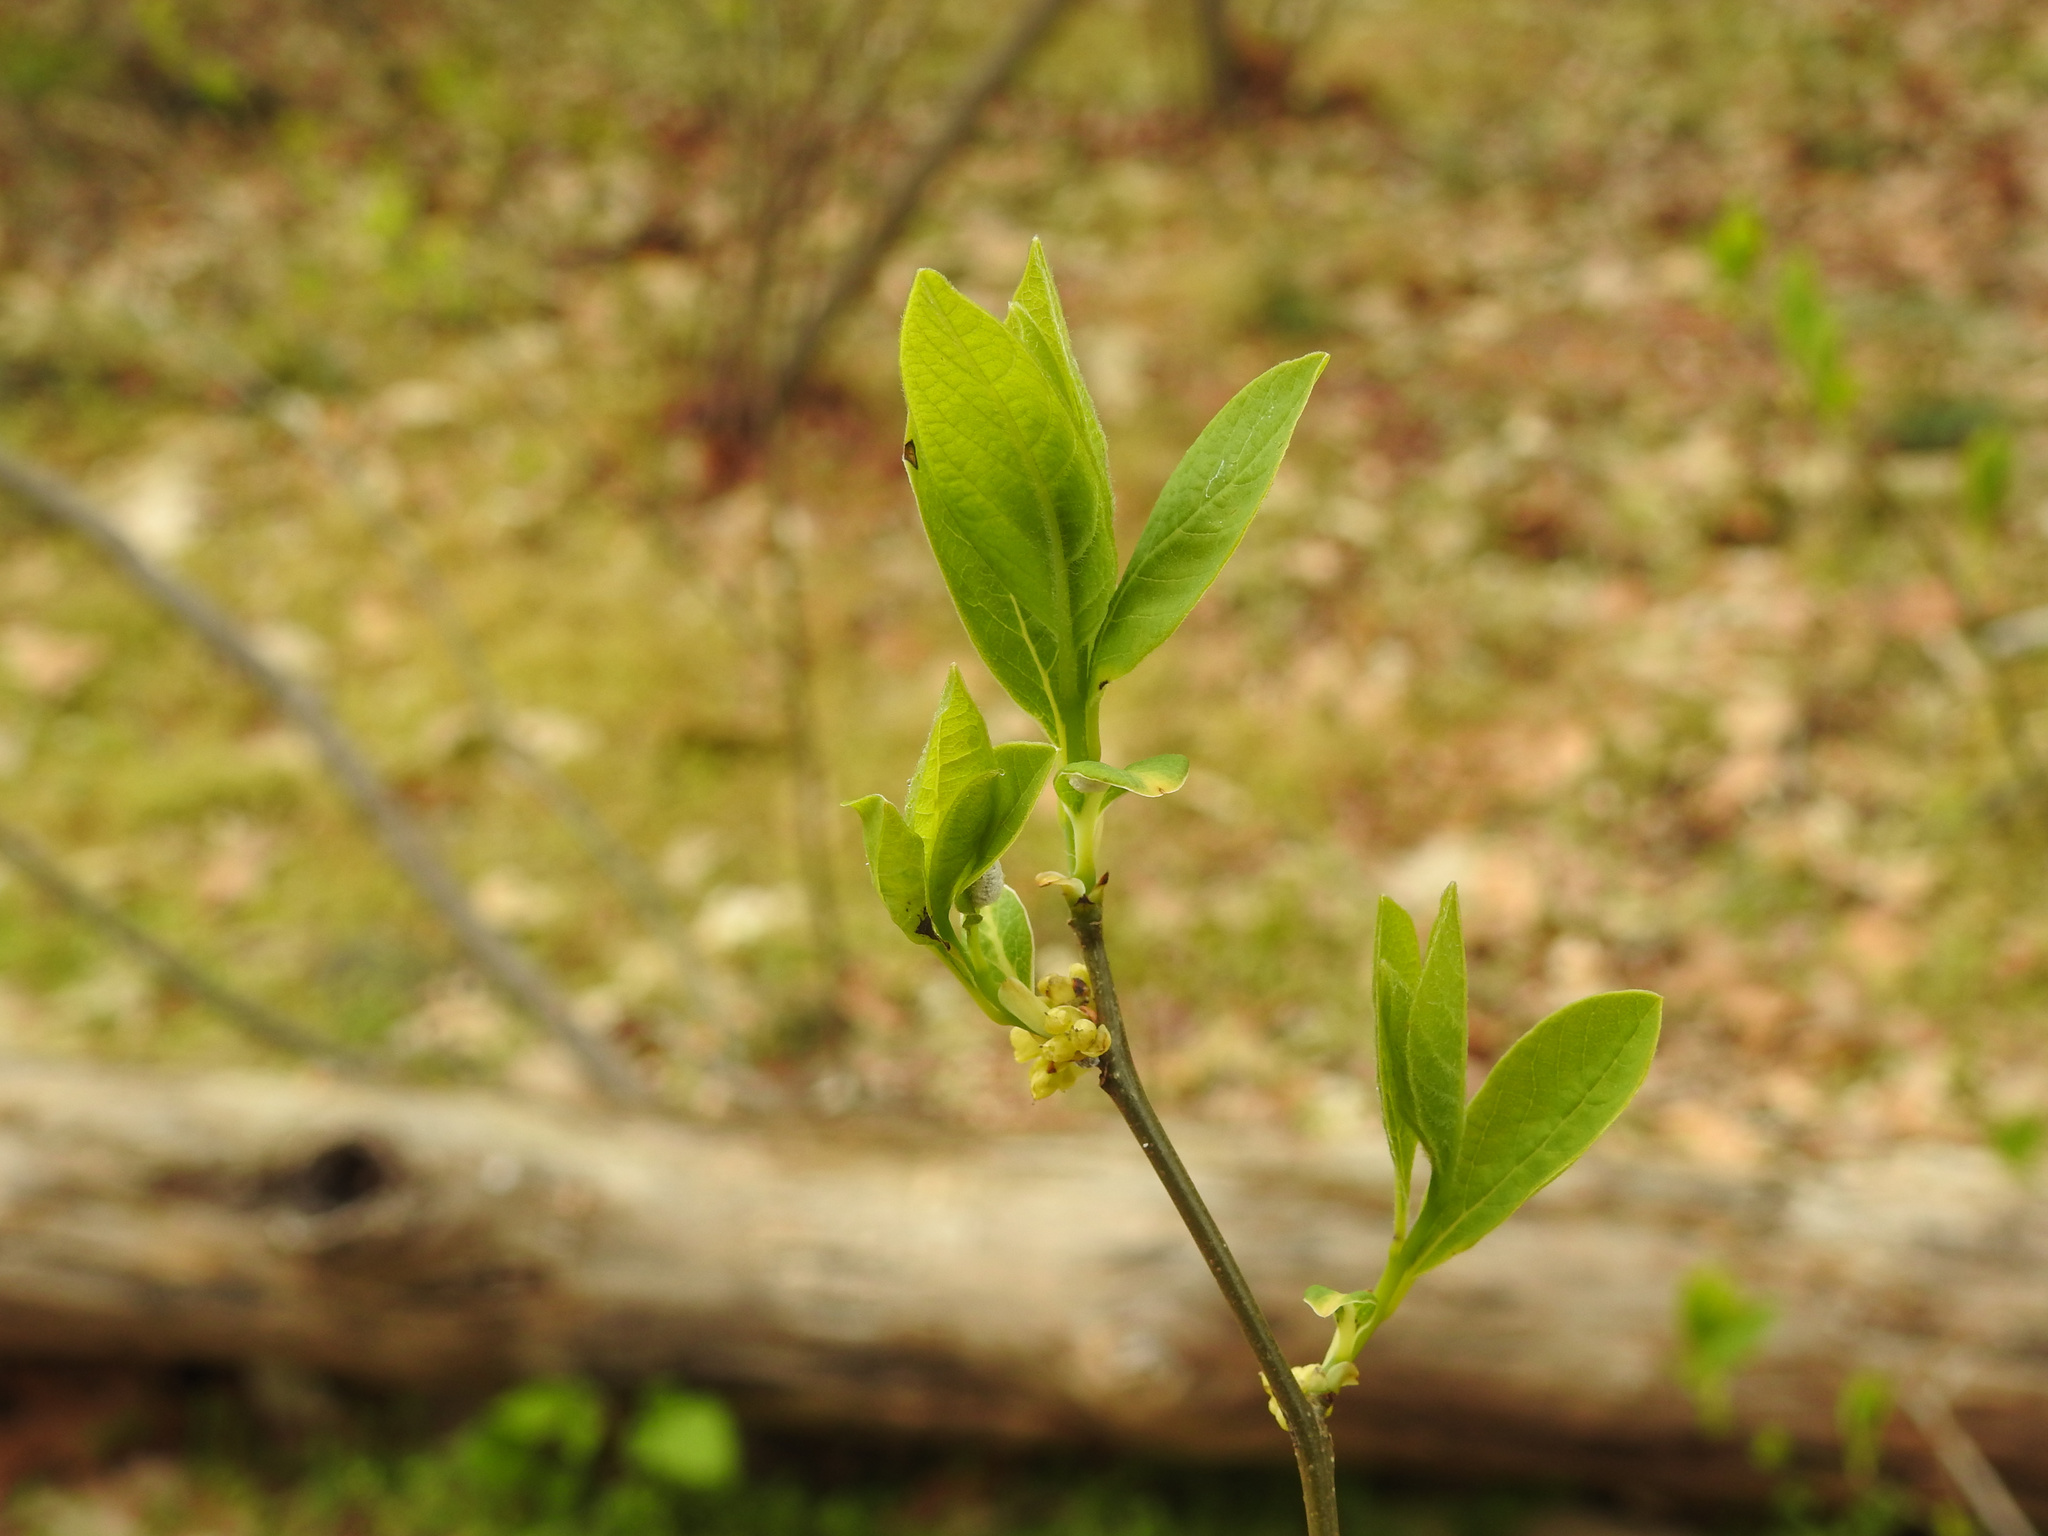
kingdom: Plantae
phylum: Tracheophyta
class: Magnoliopsida
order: Laurales
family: Lauraceae
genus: Lindera
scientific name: Lindera benzoin
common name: Spicebush
